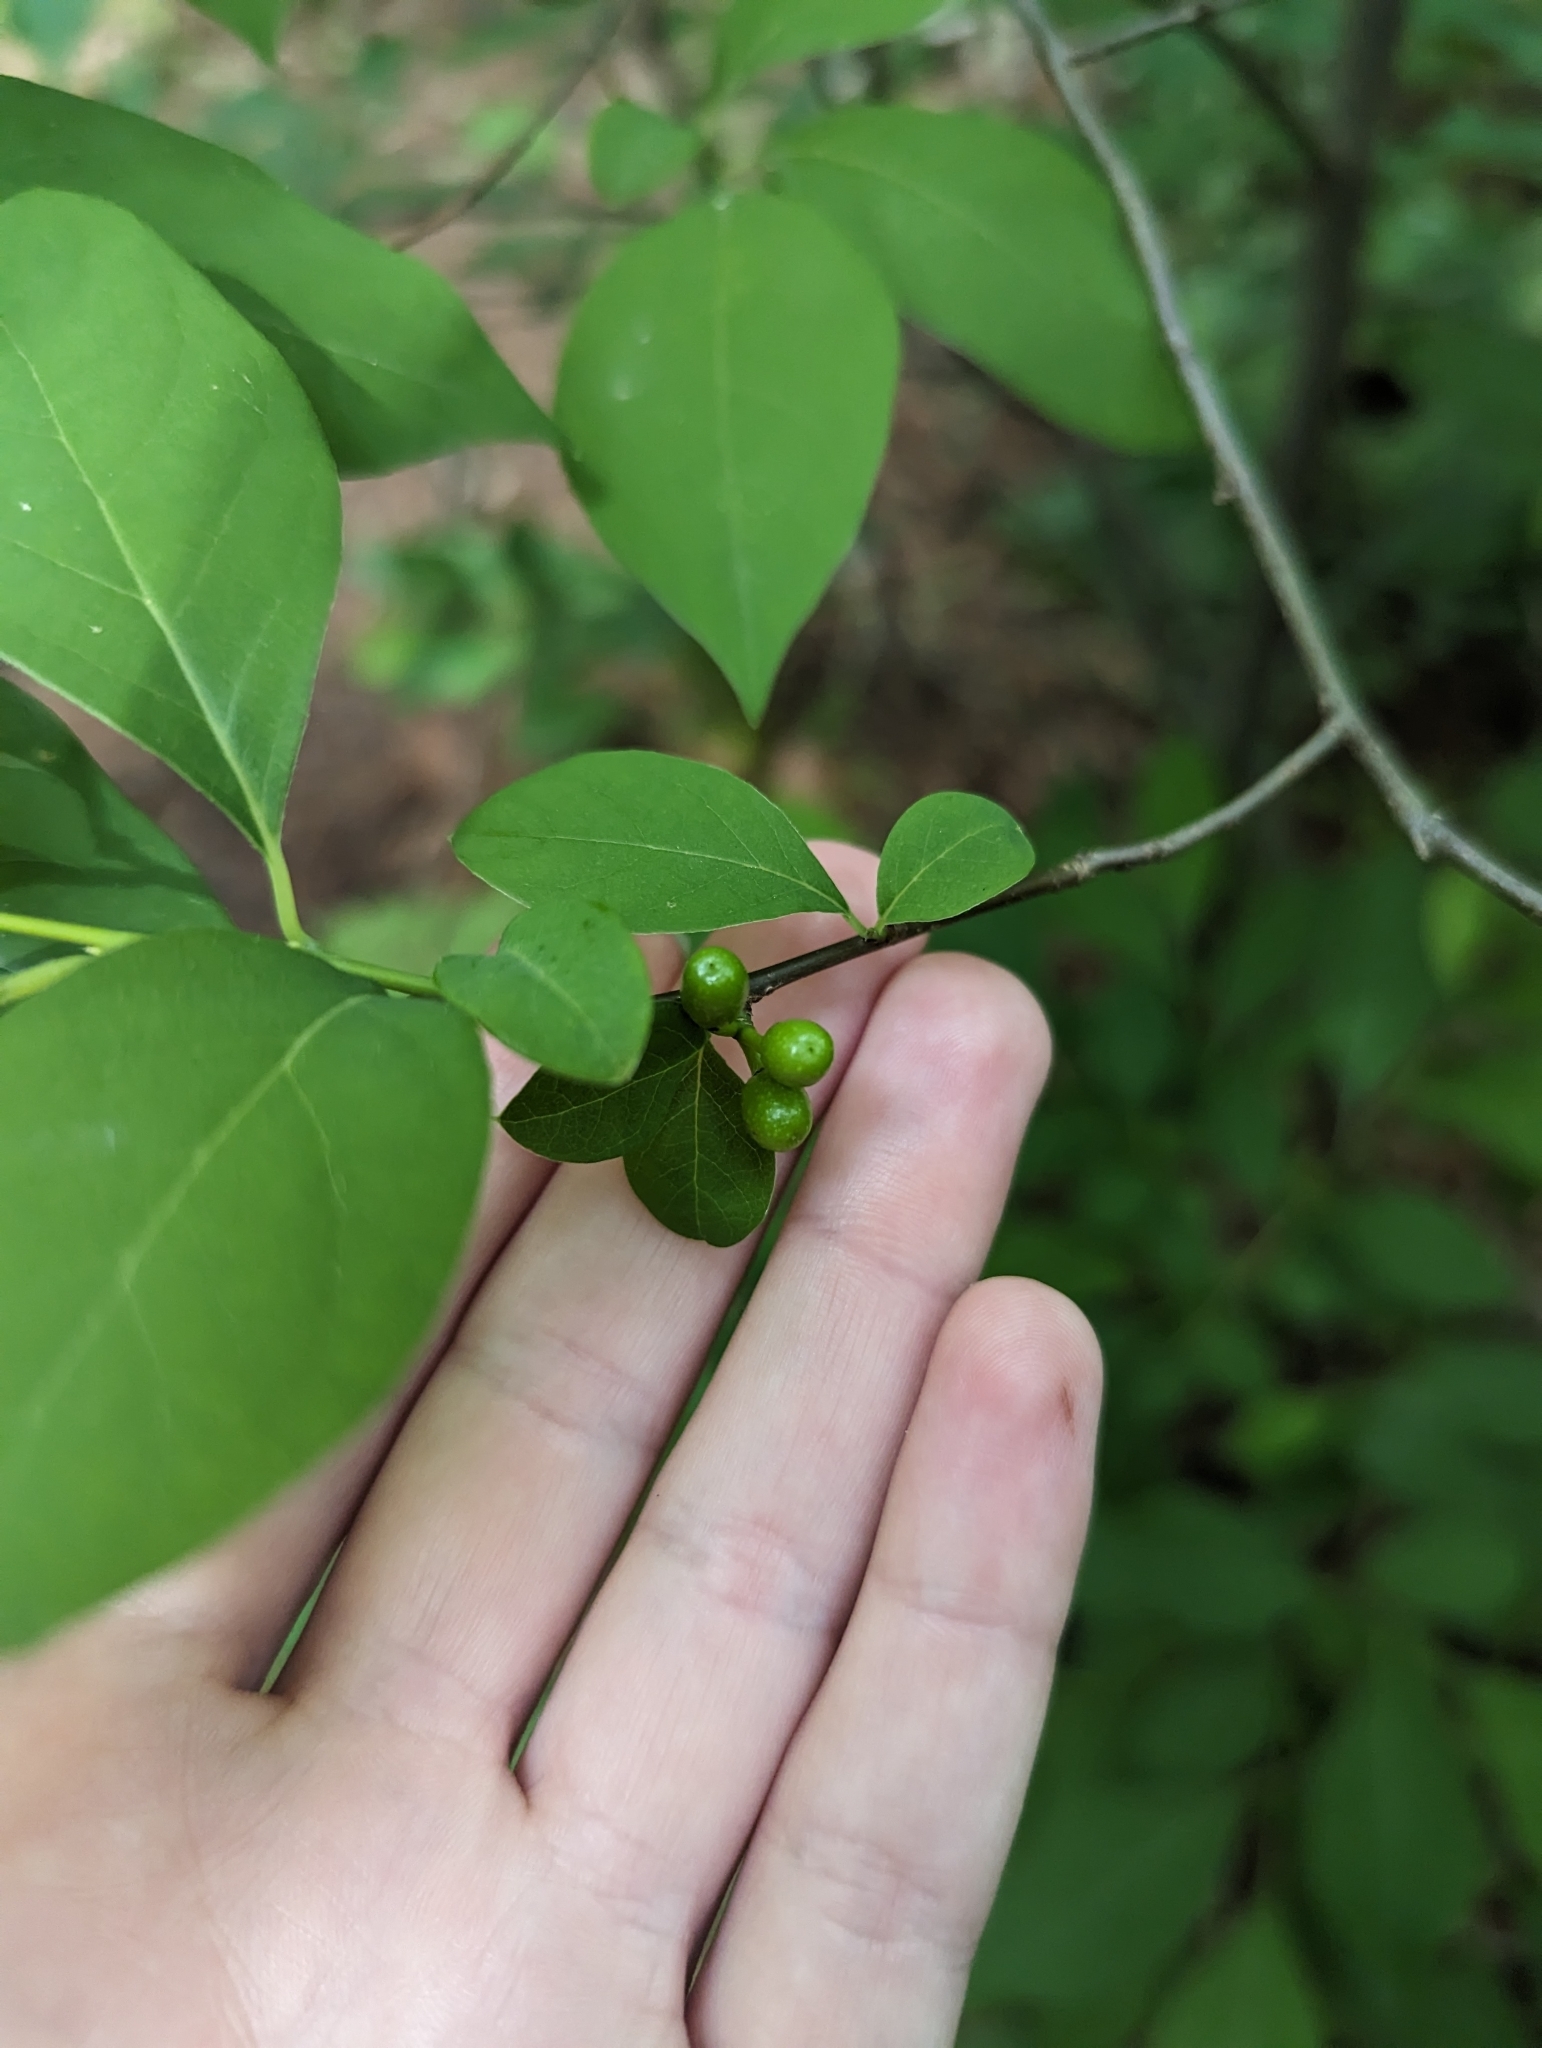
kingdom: Plantae
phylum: Tracheophyta
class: Magnoliopsida
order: Laurales
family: Lauraceae
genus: Lindera
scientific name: Lindera benzoin
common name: Spicebush
